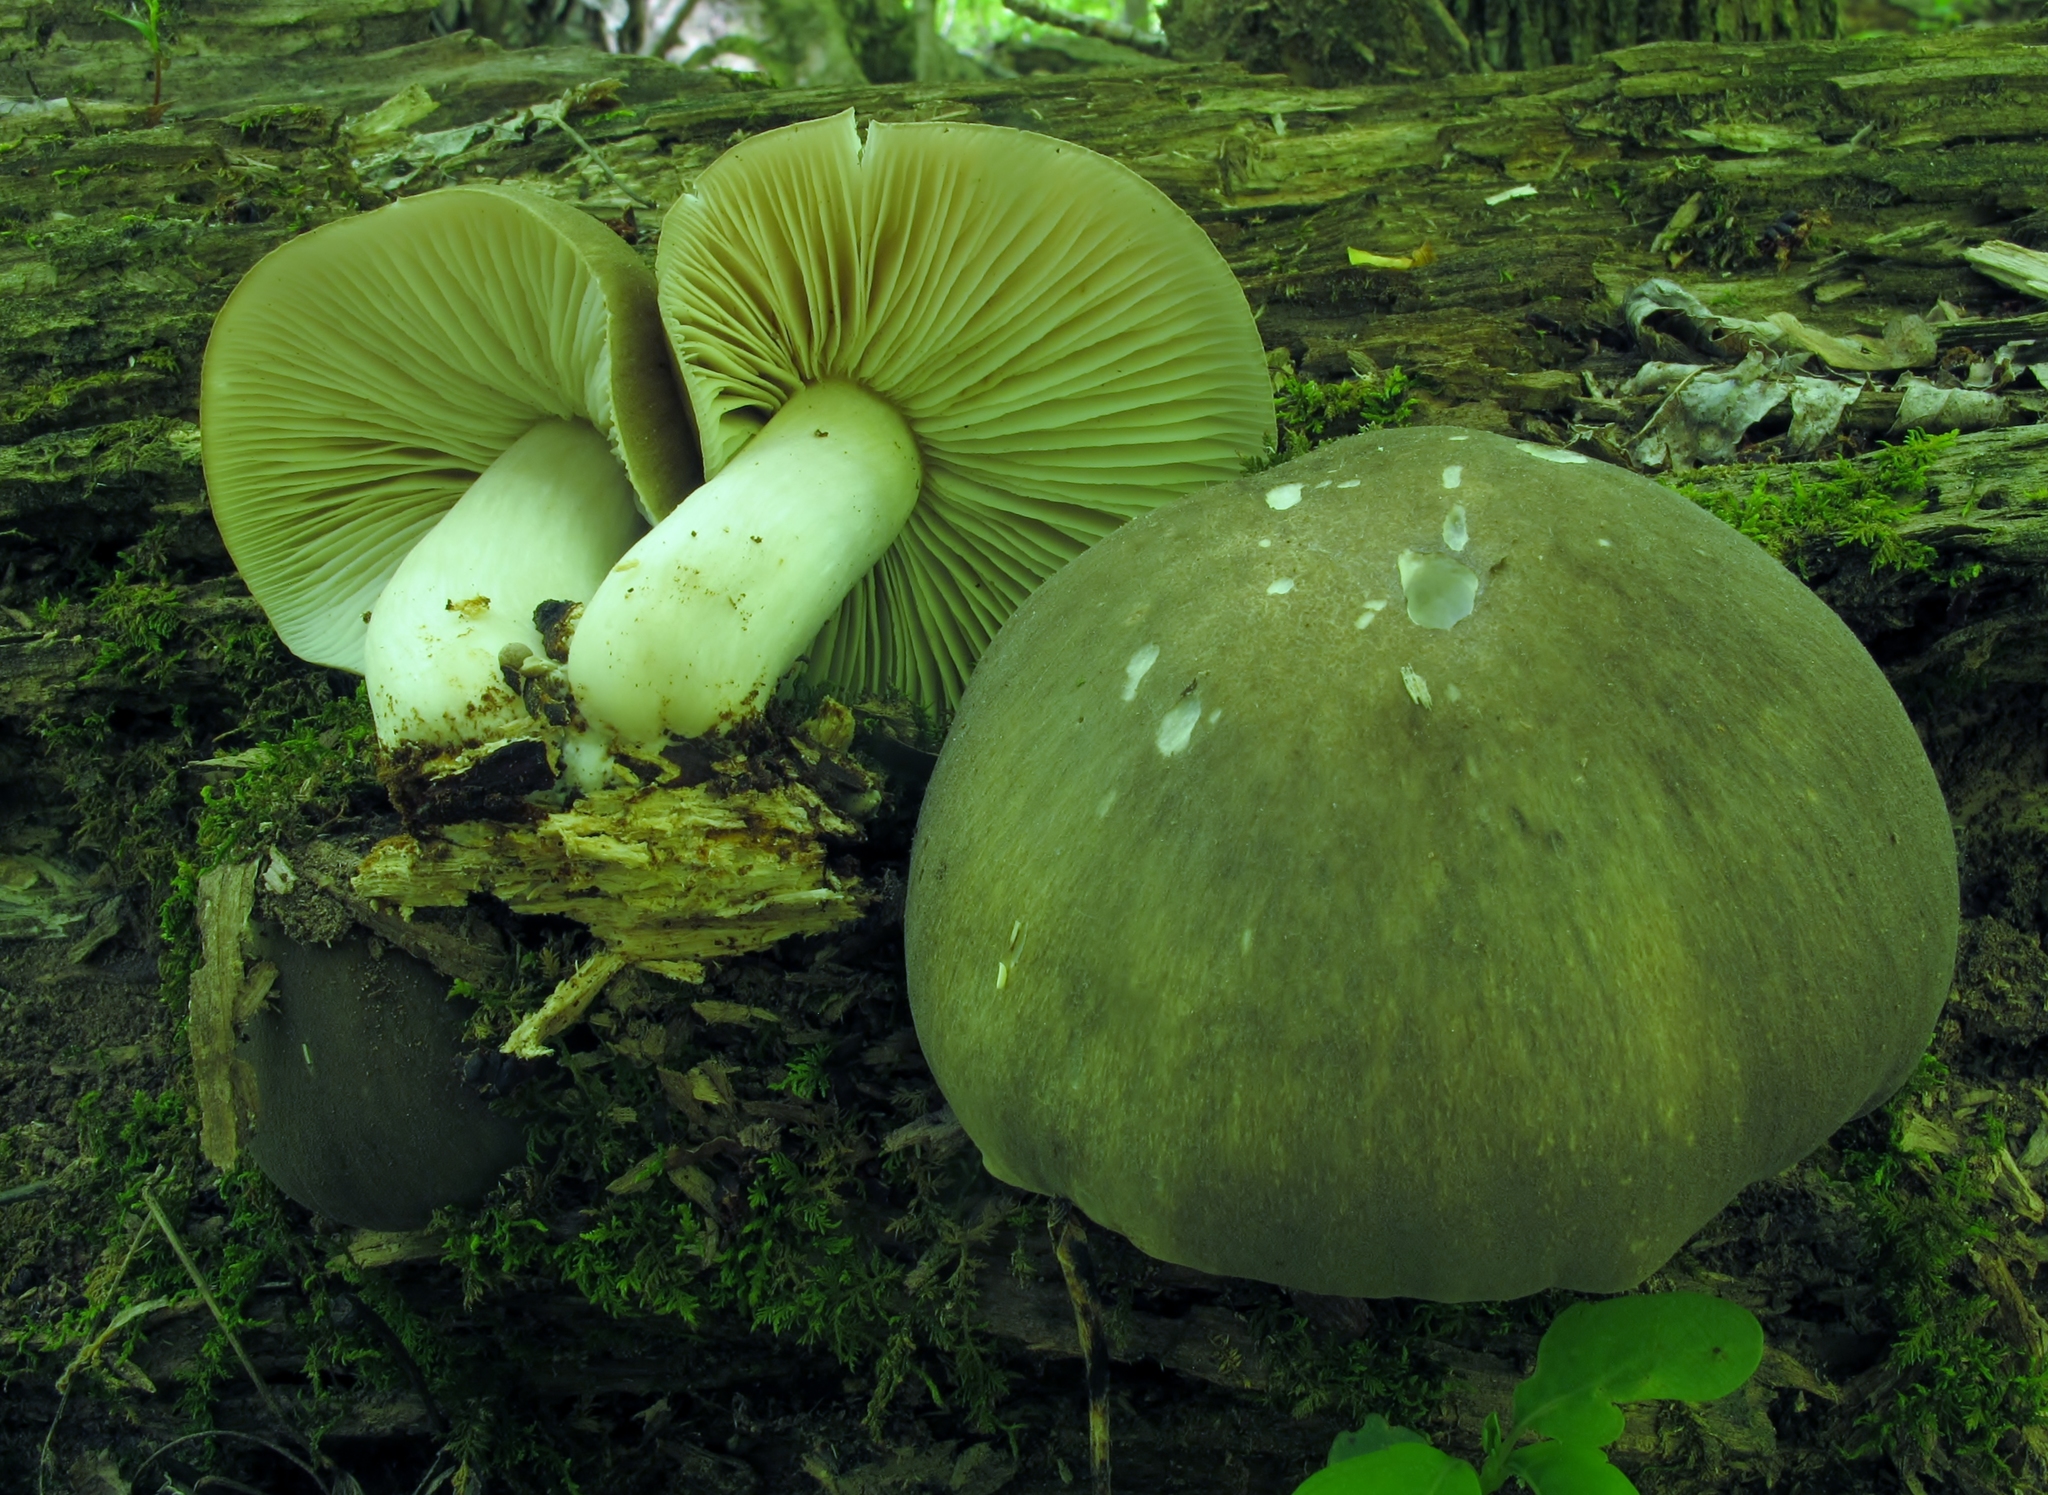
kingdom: Fungi
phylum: Basidiomycota
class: Agaricomycetes
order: Agaricales
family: Tricholomataceae
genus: Megacollybia
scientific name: Megacollybia rodmanii
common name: Eastern american platterful mushroom
